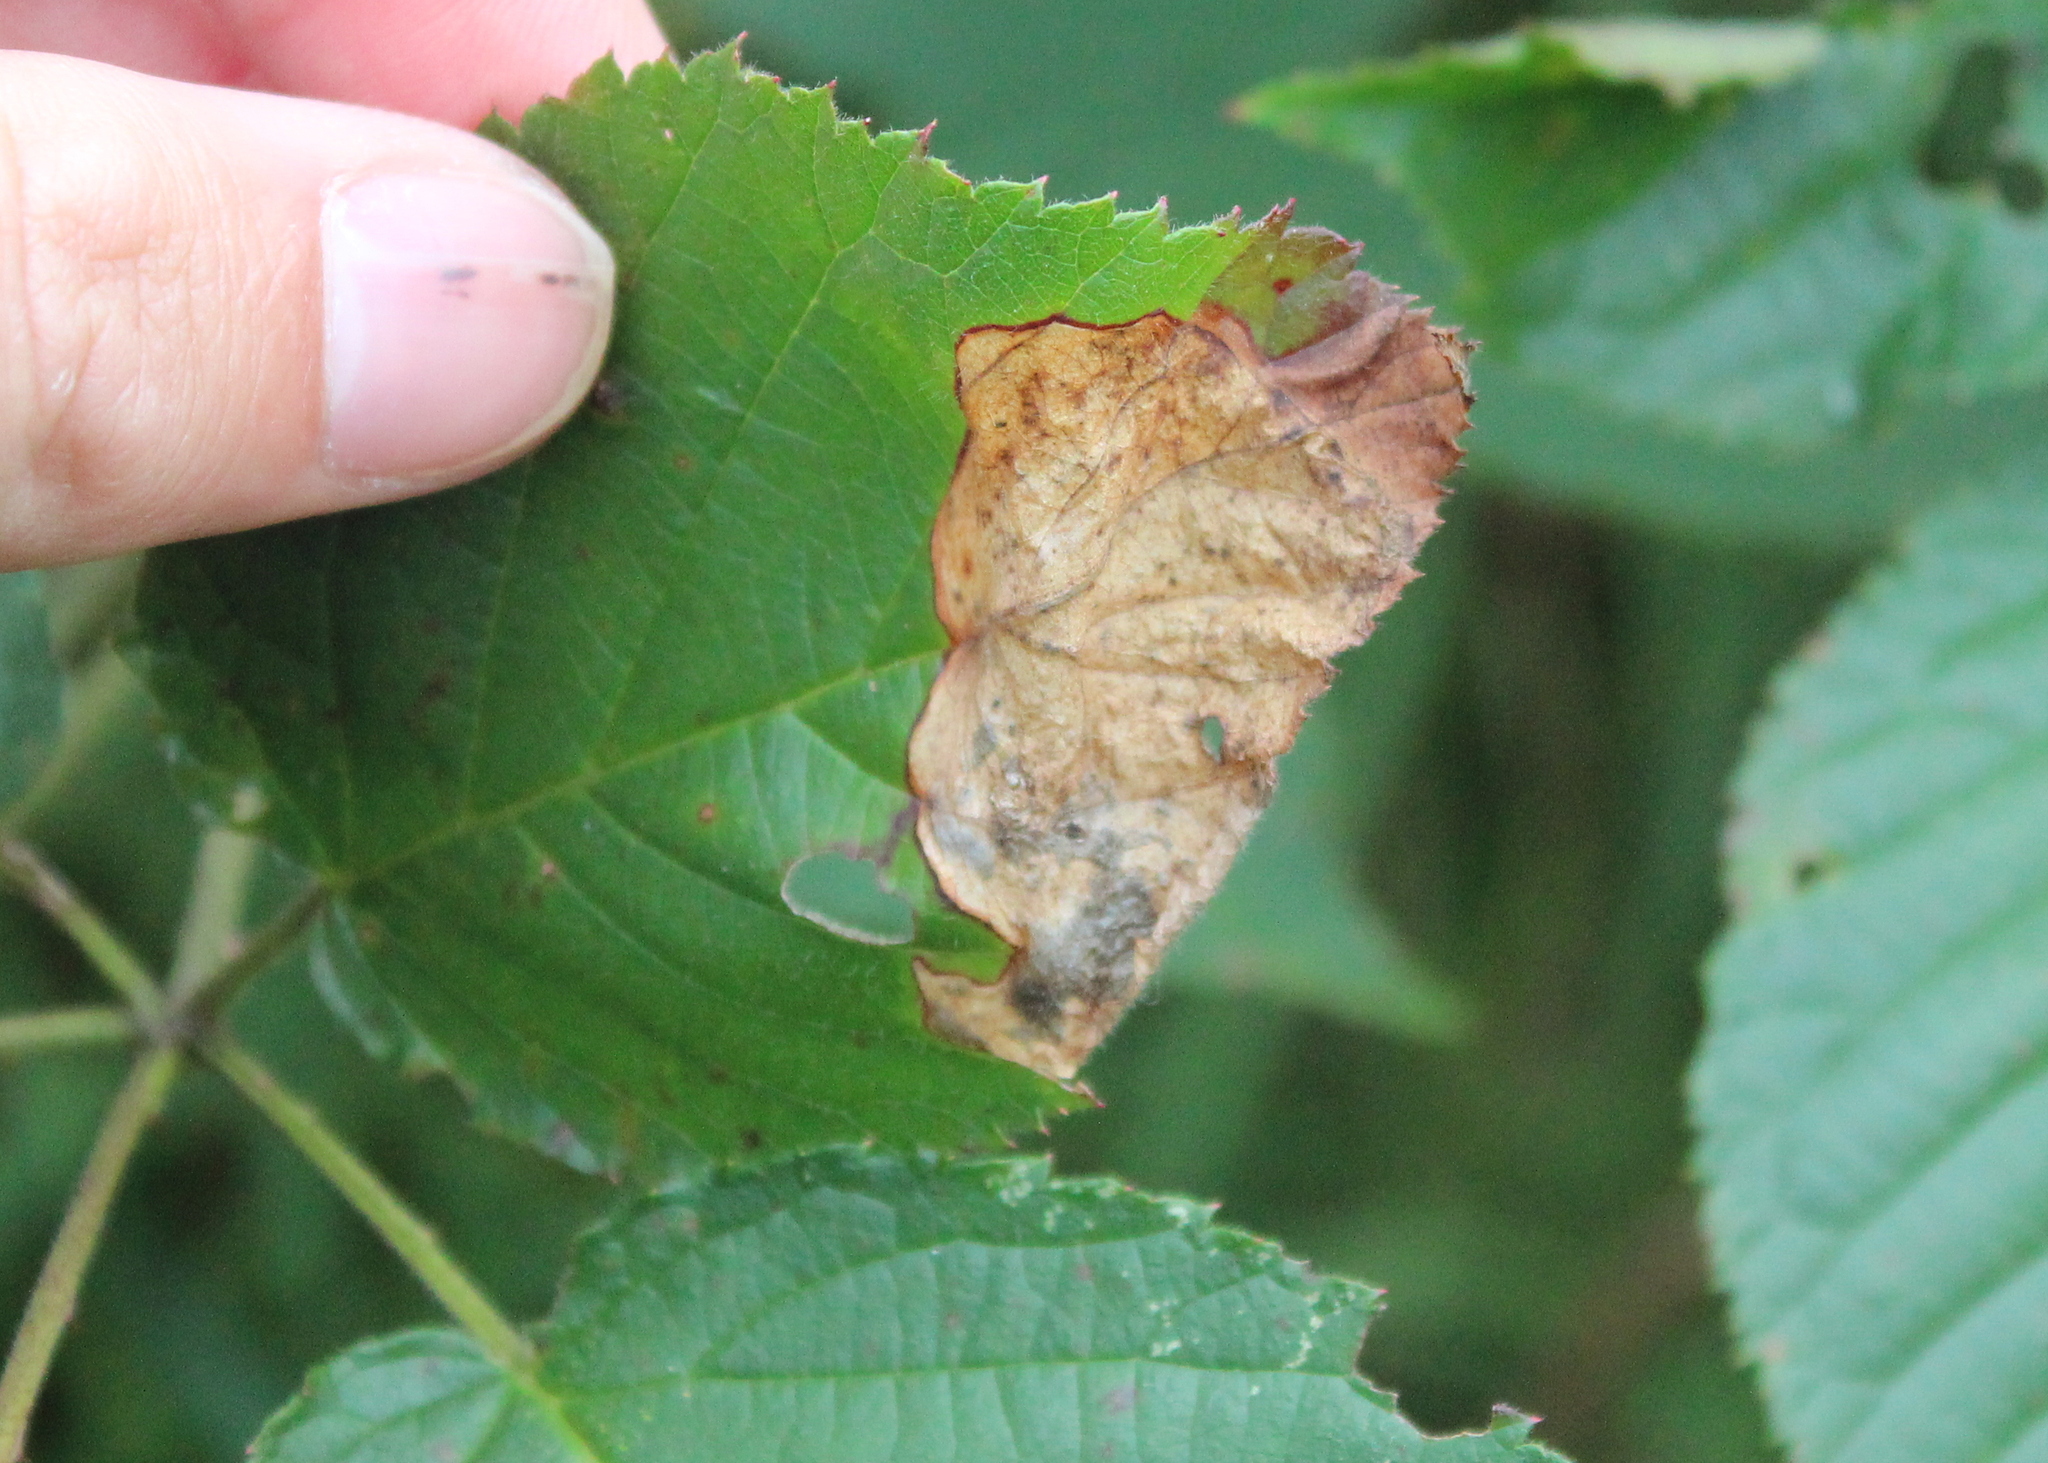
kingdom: Animalia
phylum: Arthropoda
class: Insecta
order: Hymenoptera
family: Tenthredinidae
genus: Metallus
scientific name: Metallus rohweri
